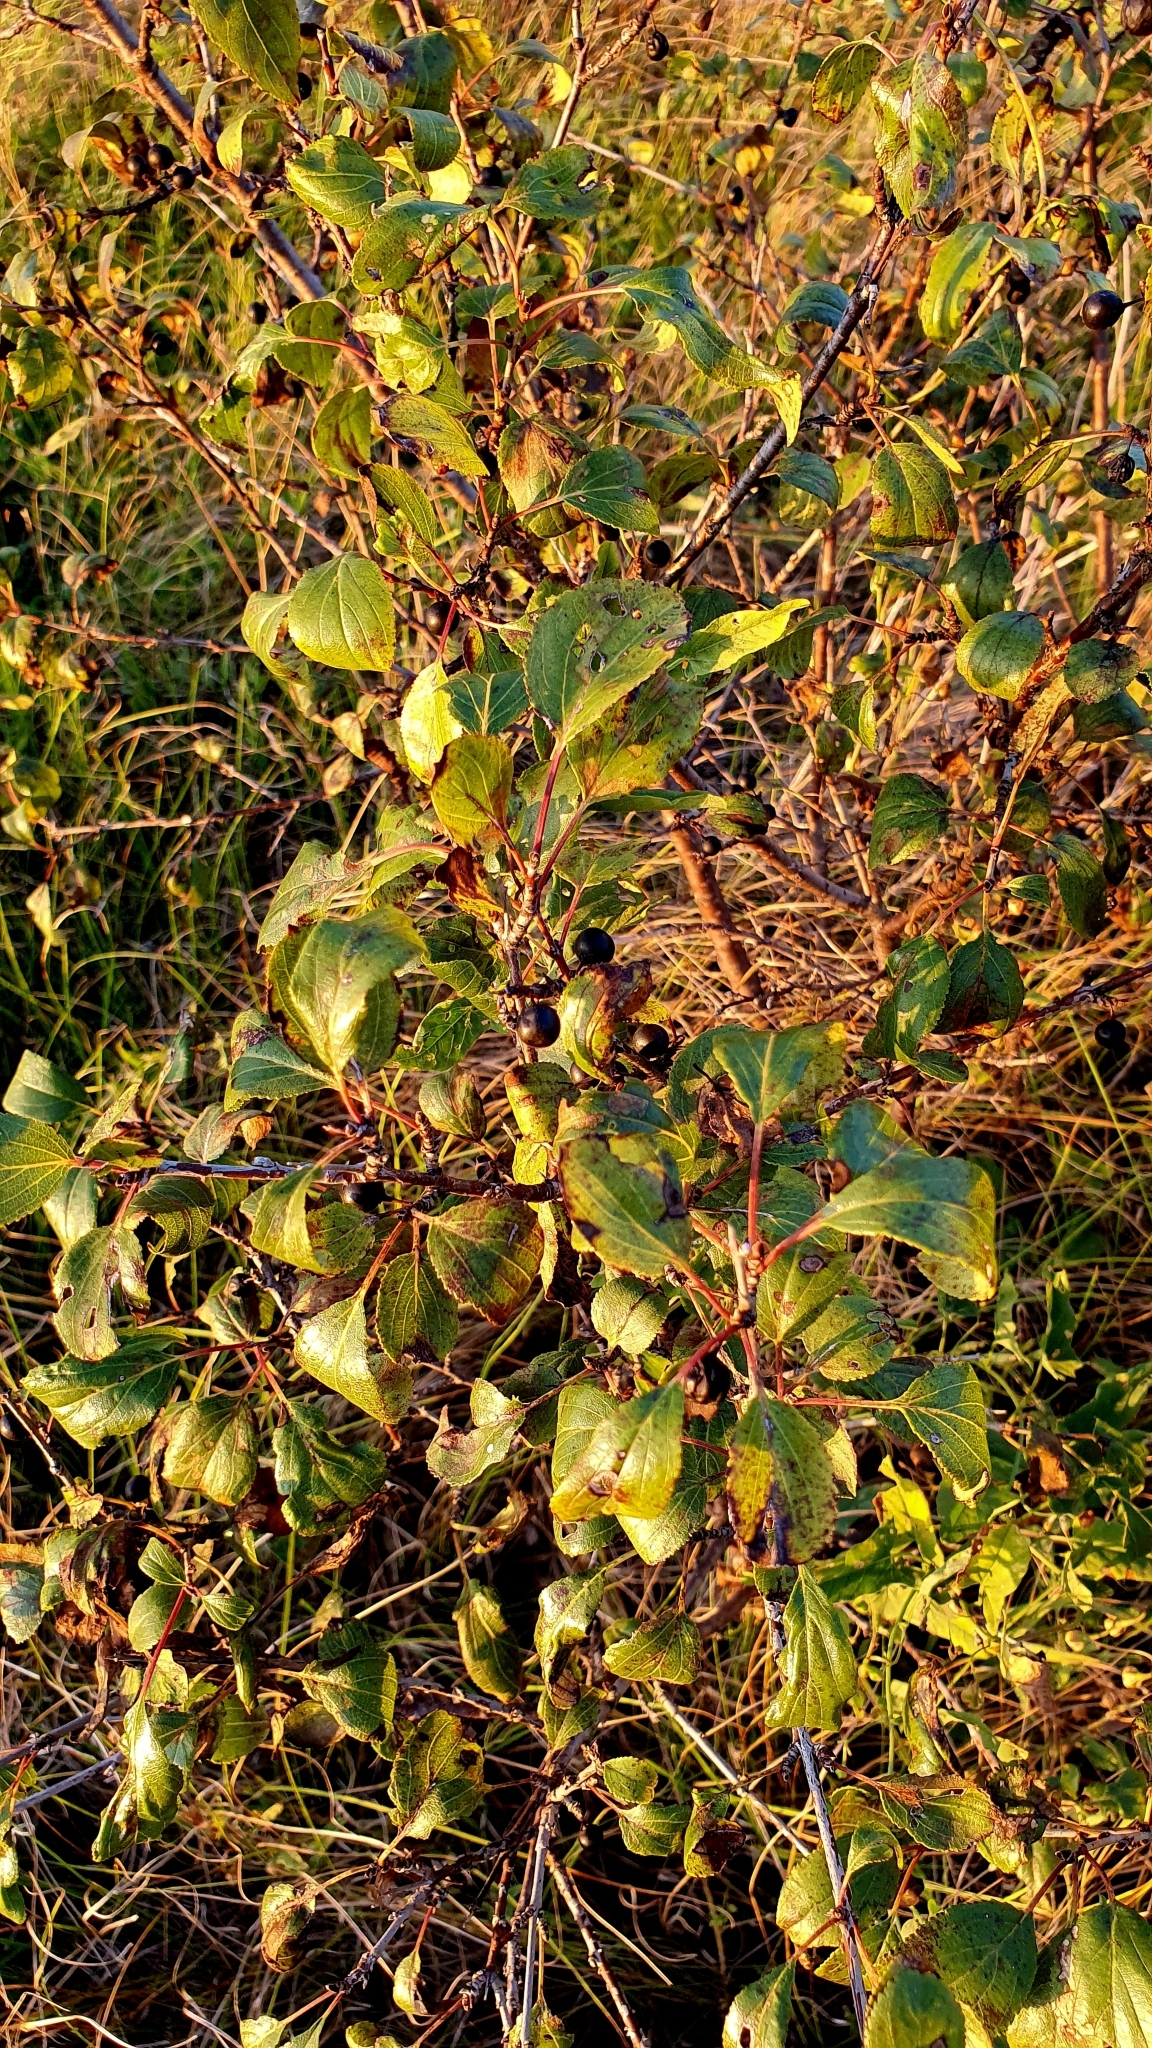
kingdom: Plantae
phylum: Tracheophyta
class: Magnoliopsida
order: Rosales
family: Rhamnaceae
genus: Rhamnus
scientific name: Rhamnus cathartica
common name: Common buckthorn
